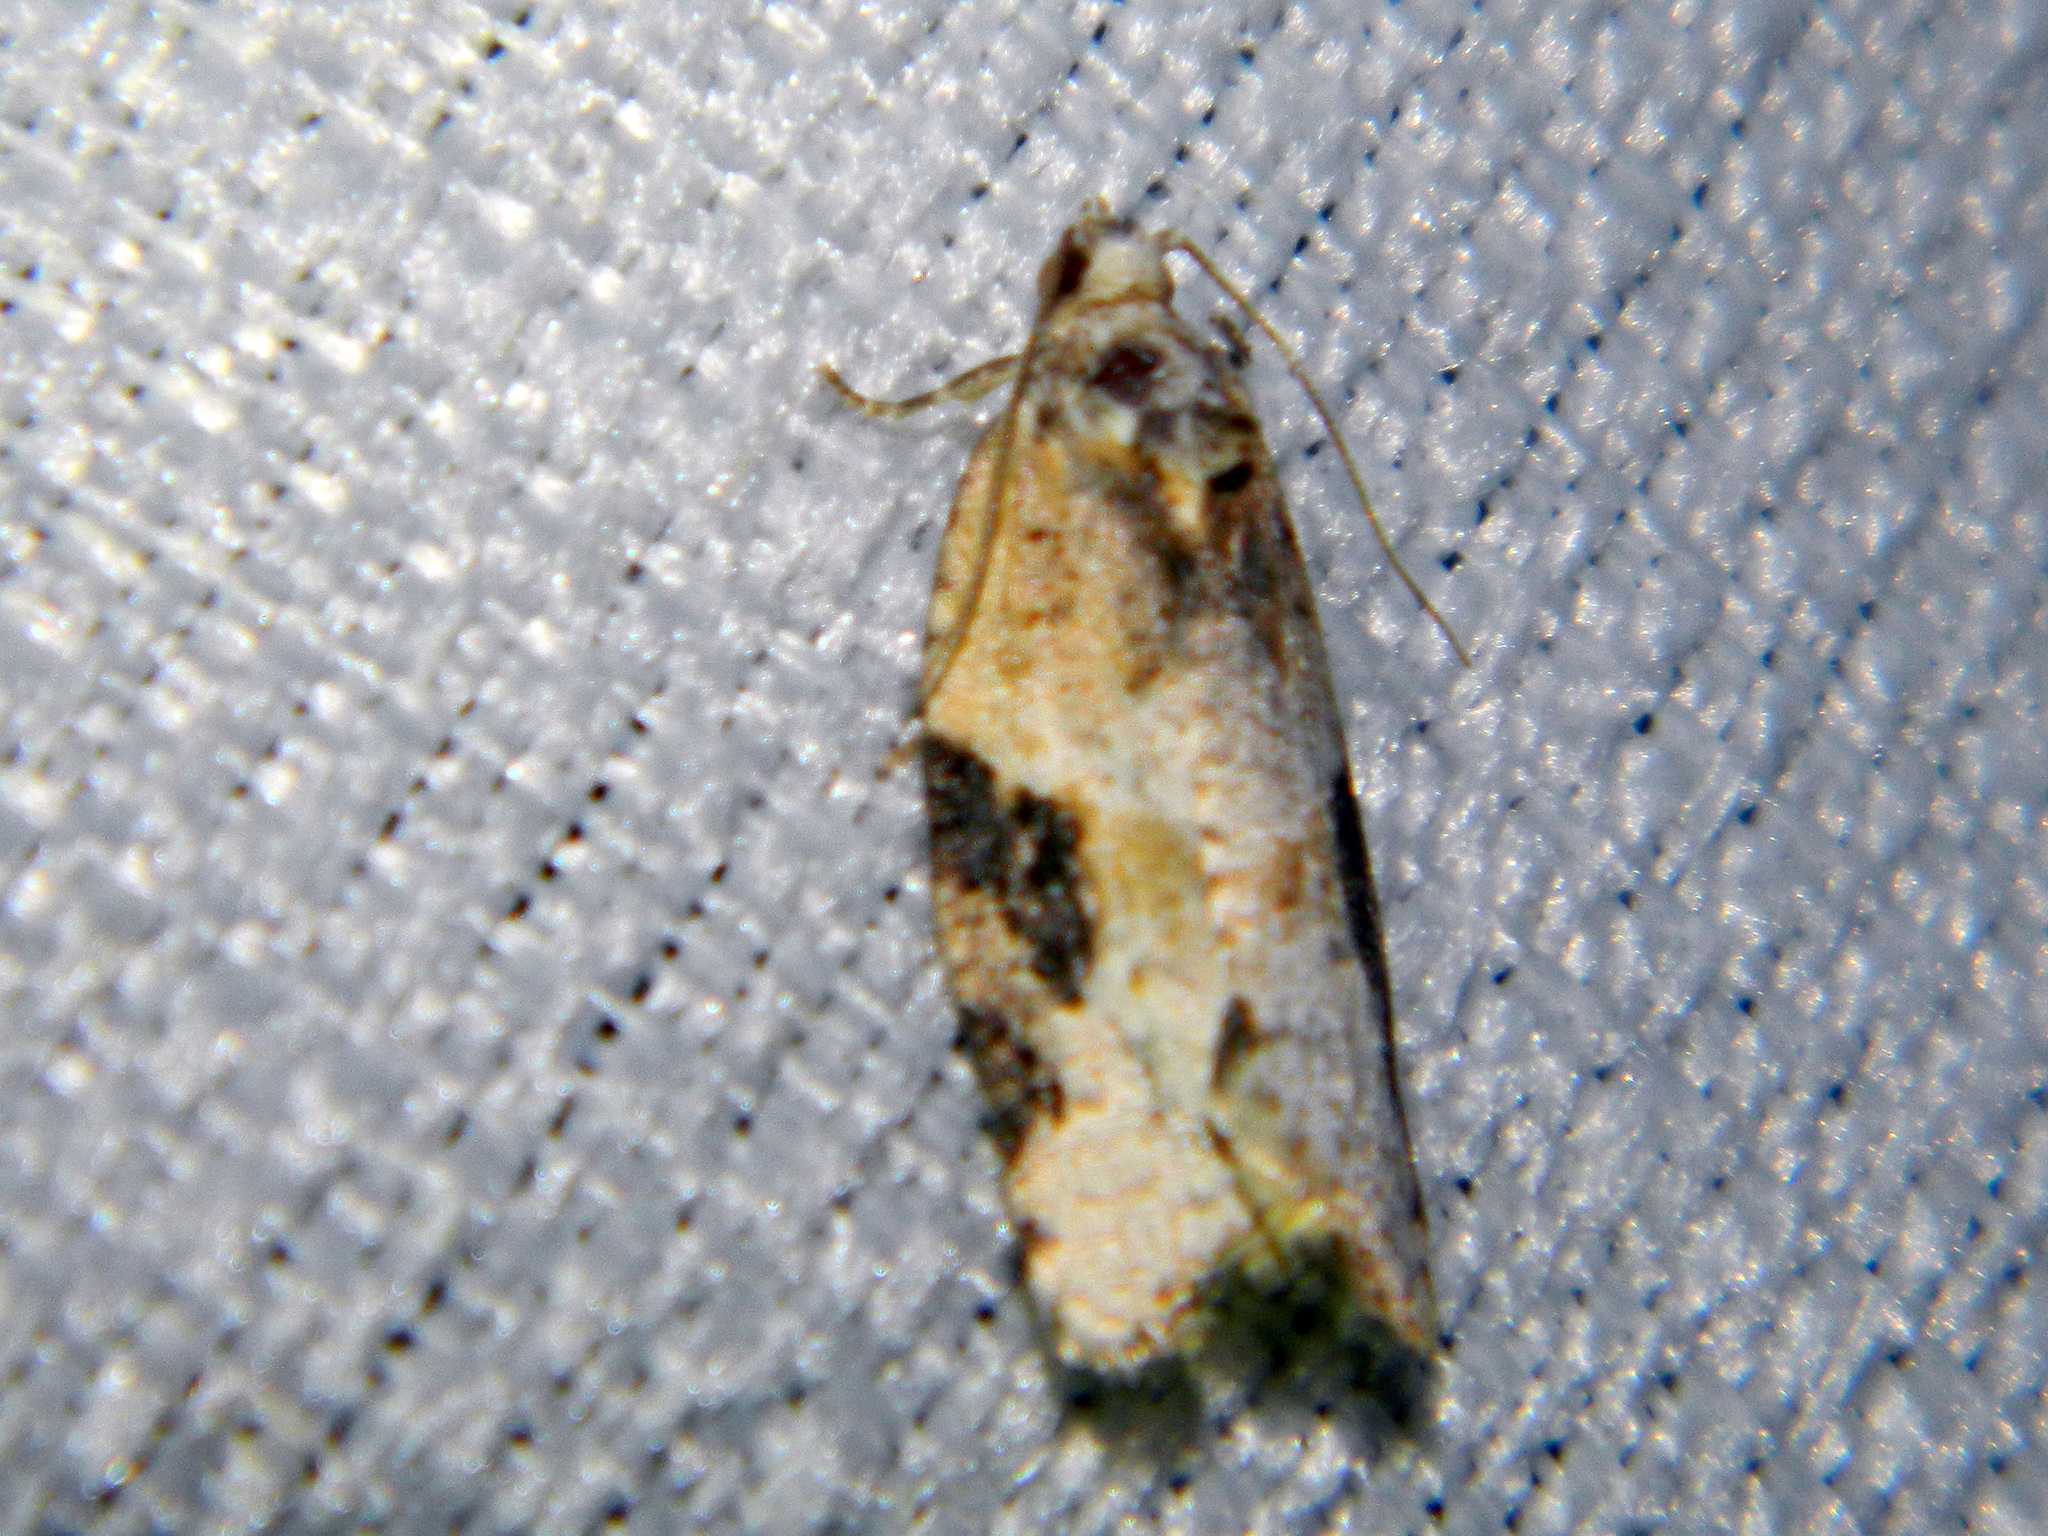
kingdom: Animalia
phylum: Arthropoda
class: Insecta
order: Lepidoptera
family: Tortricidae
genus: Argyrotaenia
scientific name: Argyrotaenia mariana
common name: Gray-banded leafroller moth
